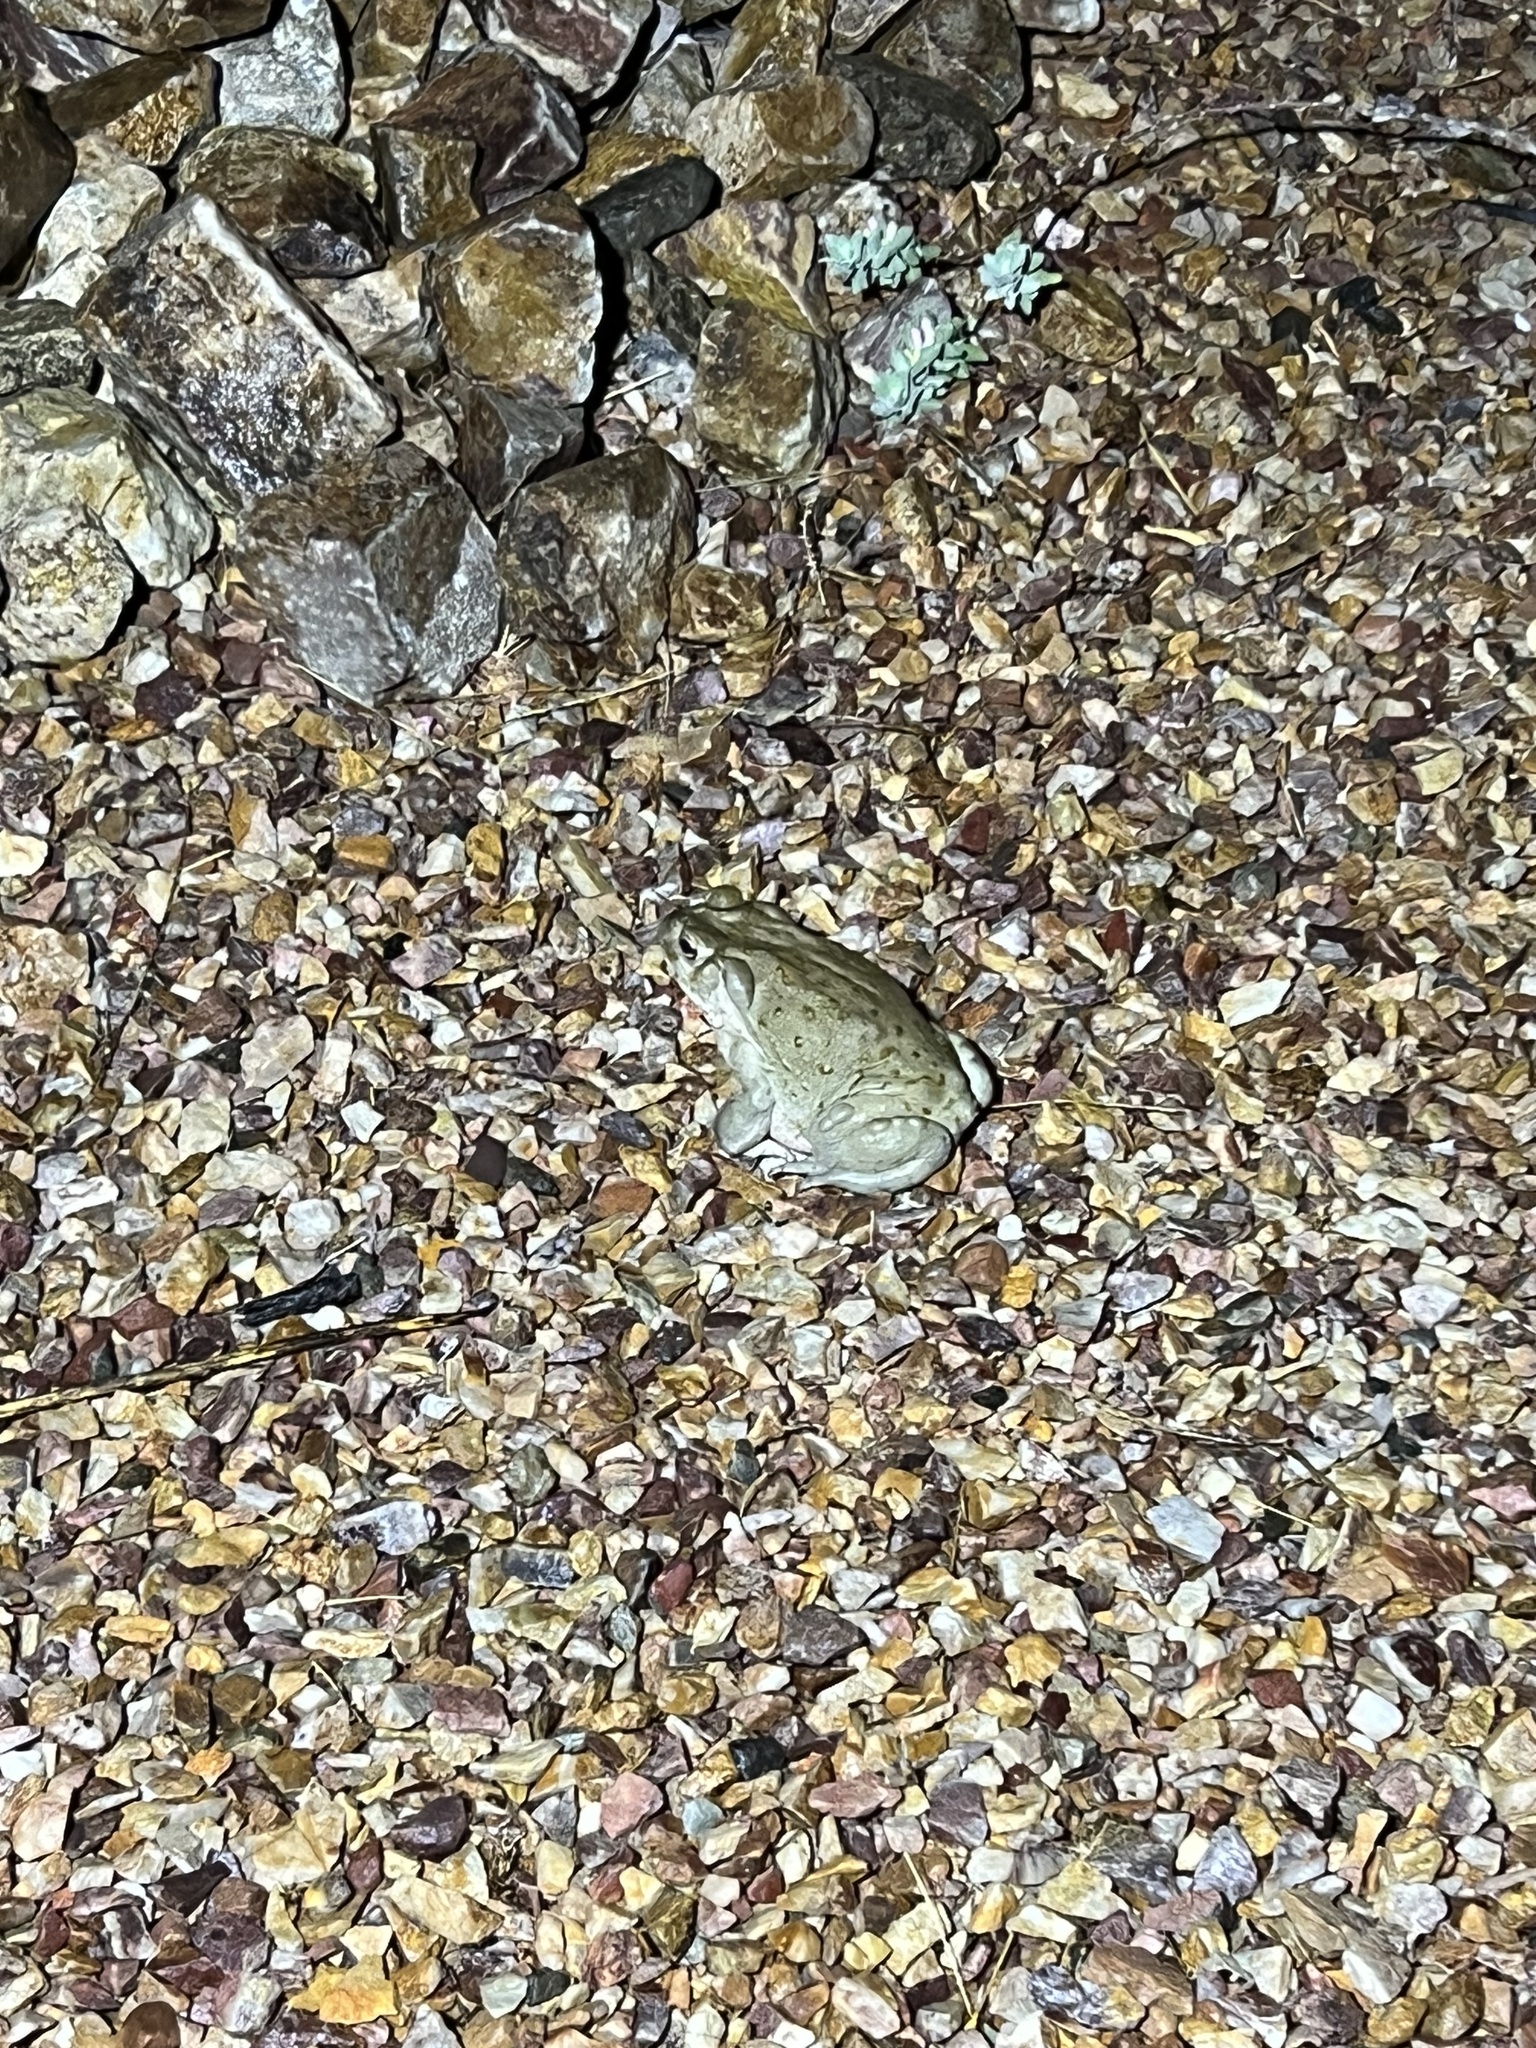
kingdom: Animalia
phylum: Chordata
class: Amphibia
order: Anura
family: Bufonidae
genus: Incilius
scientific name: Incilius alvarius
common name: Sonoran desert toad
